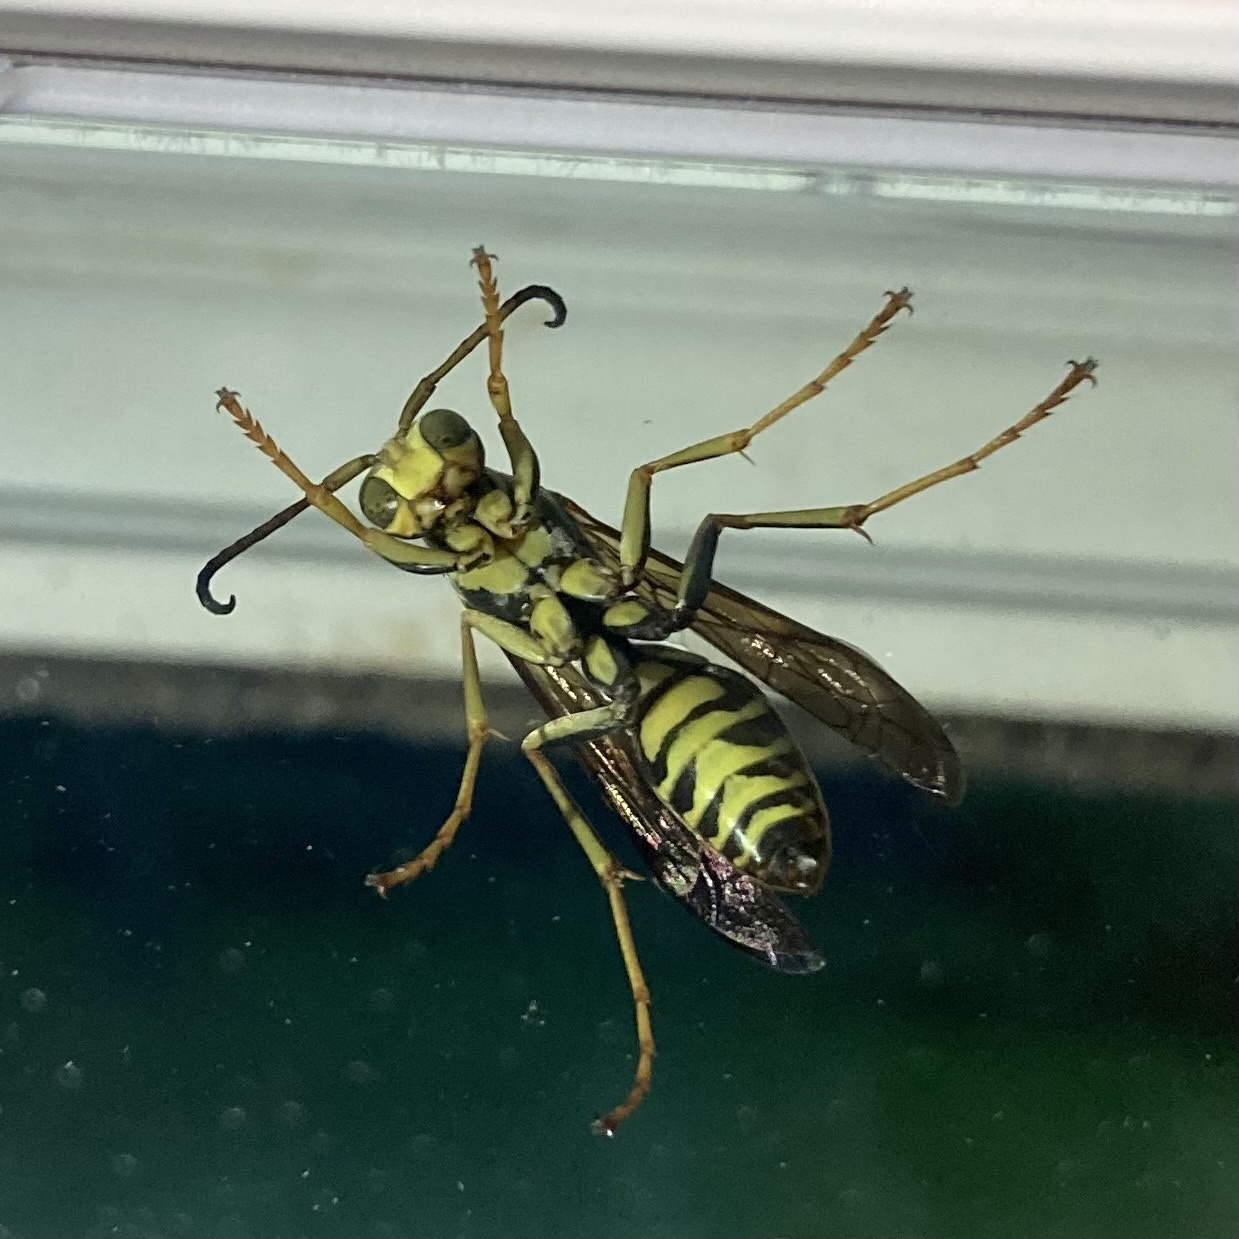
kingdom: Animalia
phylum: Arthropoda
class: Insecta
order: Hymenoptera
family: Eumenidae
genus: Polistes
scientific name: Polistes fuscatus
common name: Dark paper wasp
